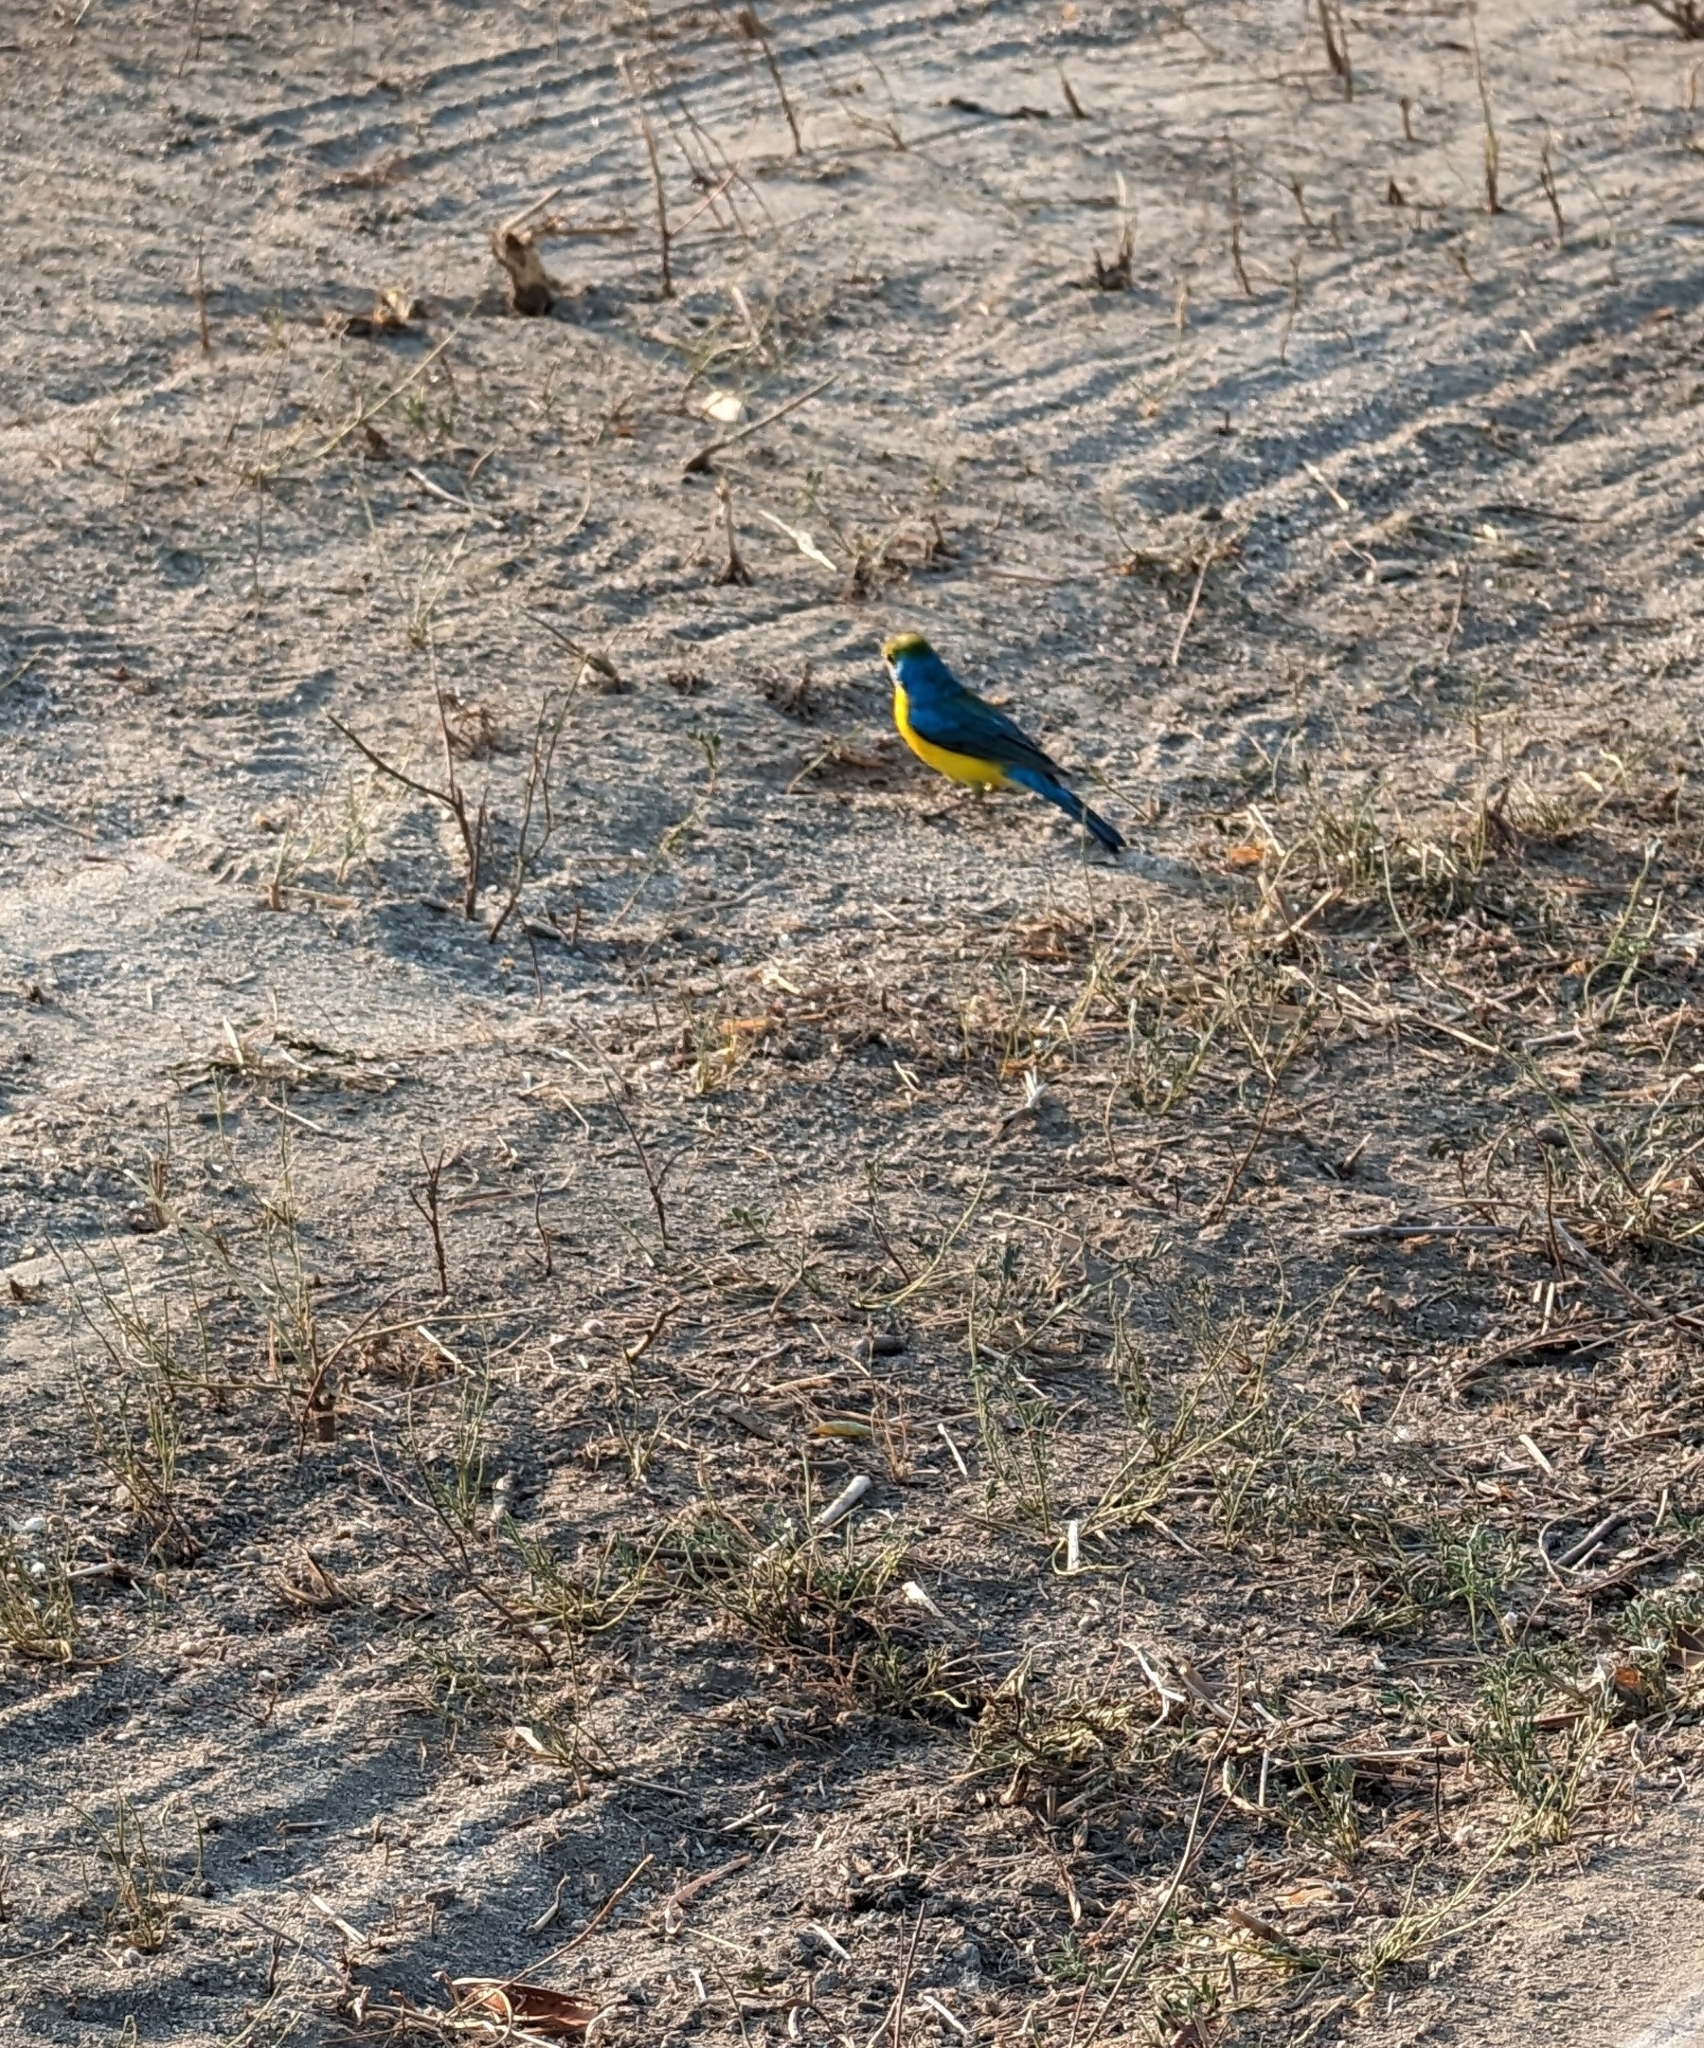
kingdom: Animalia
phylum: Chordata
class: Aves
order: Passeriformes
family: Cardinalidae
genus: Passerina
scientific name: Passerina leclancherii
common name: Orange-breasted bunting
